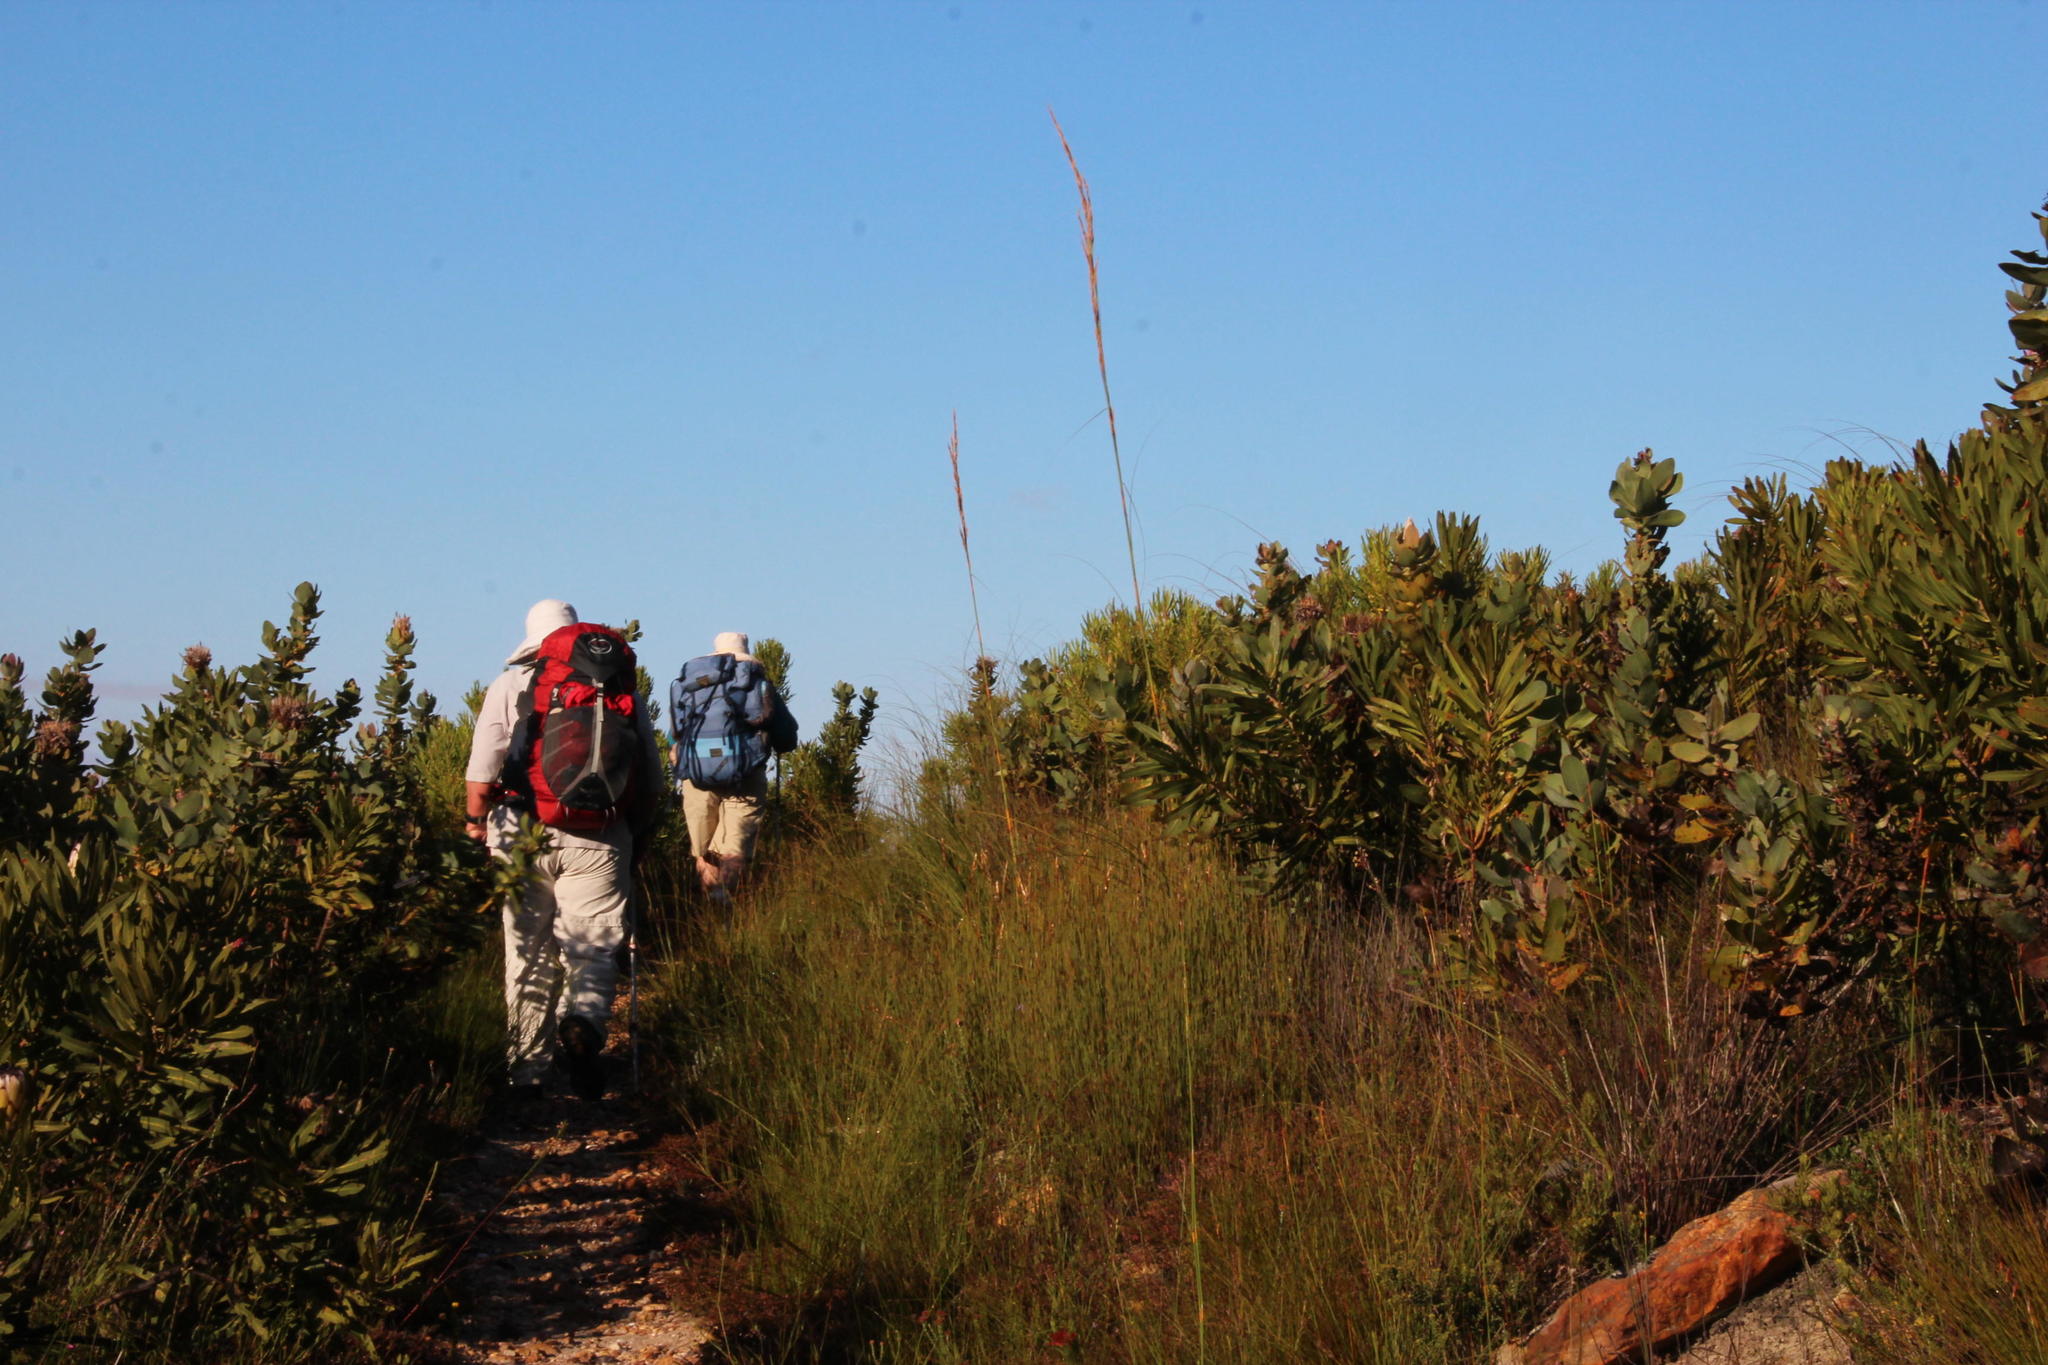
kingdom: Plantae
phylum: Tracheophyta
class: Liliopsida
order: Poales
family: Cyperaceae
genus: Tetraria
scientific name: Tetraria involucrata
